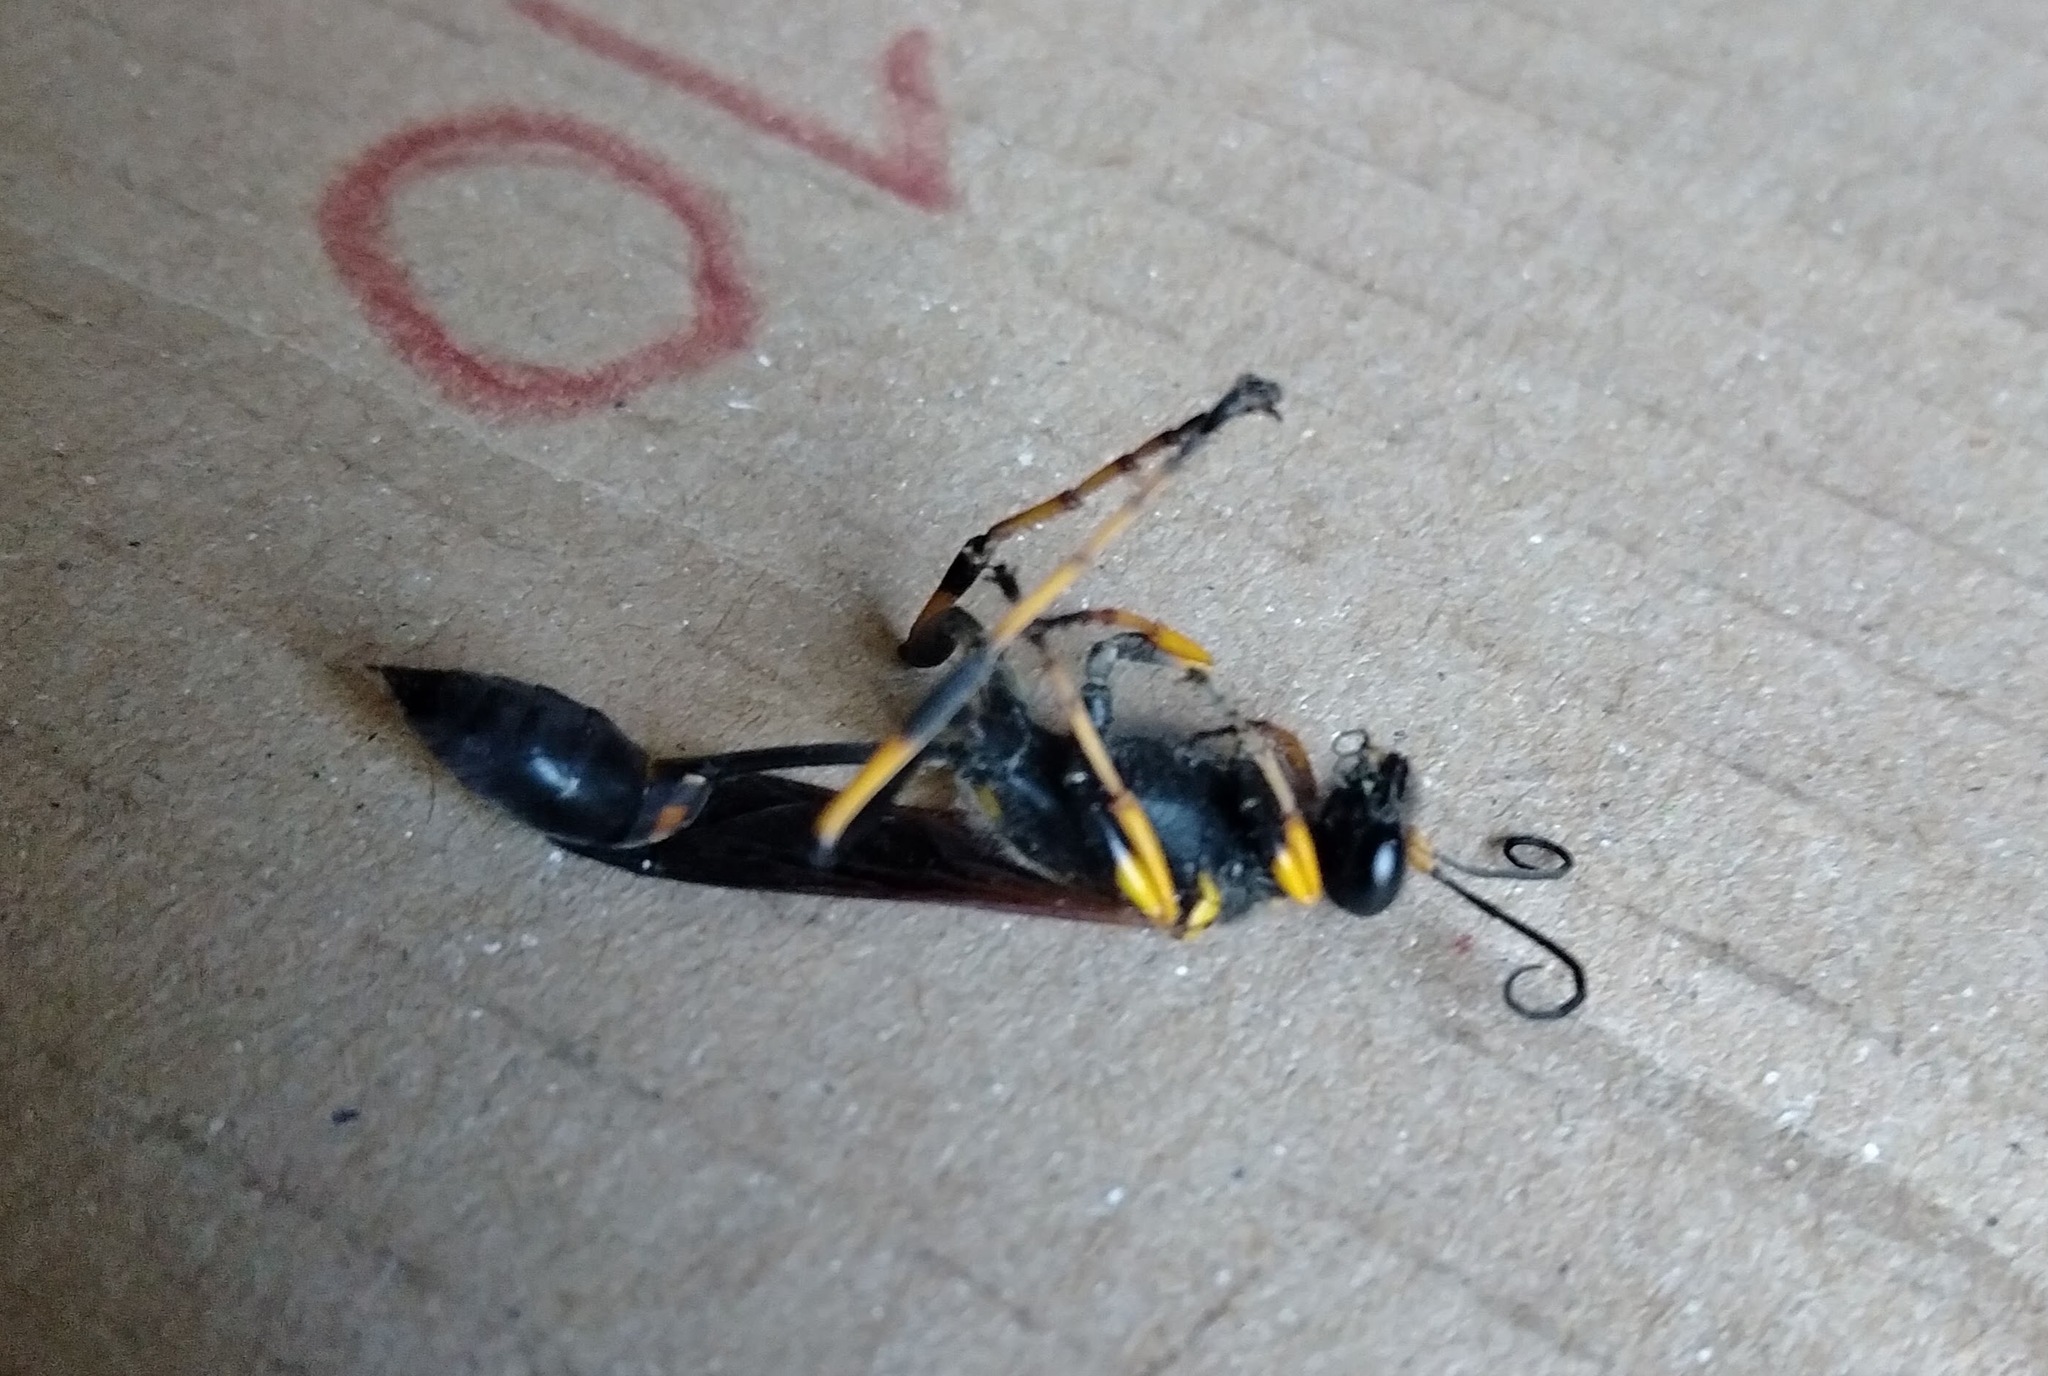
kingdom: Animalia
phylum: Arthropoda
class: Insecta
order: Hymenoptera
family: Sphecidae
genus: Sceliphron
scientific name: Sceliphron caementarium
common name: Mud dauber
